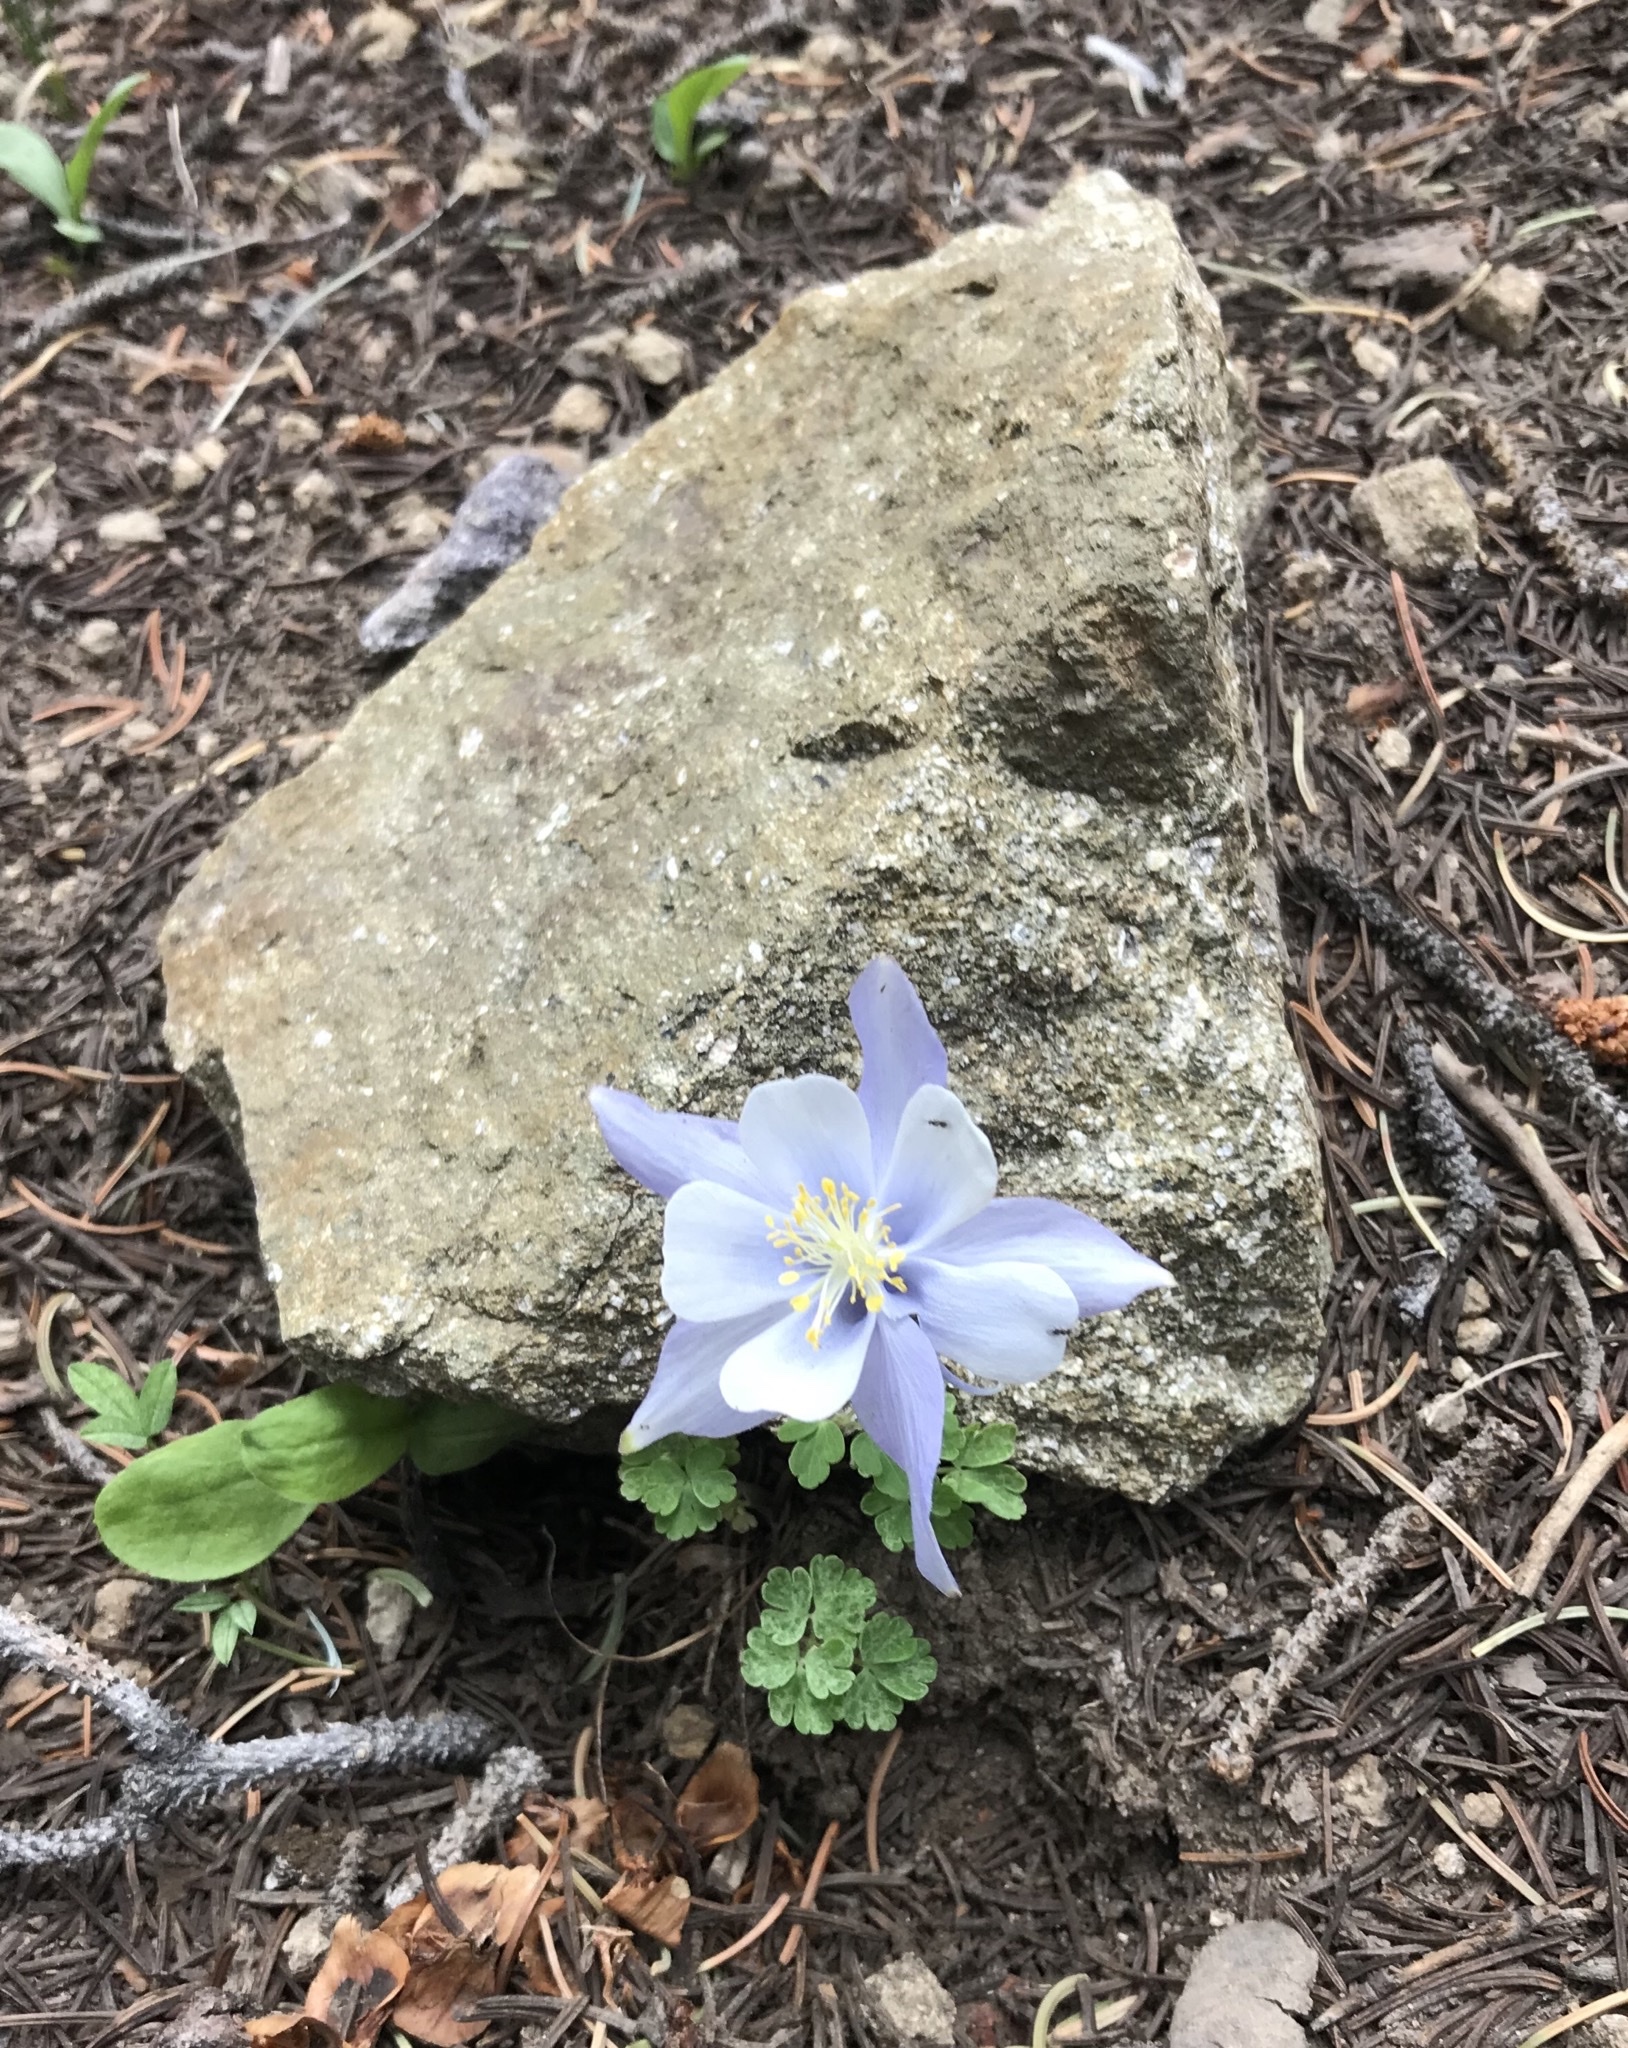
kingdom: Plantae
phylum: Tracheophyta
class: Magnoliopsida
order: Ranunculales
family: Ranunculaceae
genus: Aquilegia
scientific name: Aquilegia coerulea
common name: Rocky mountain columbine
